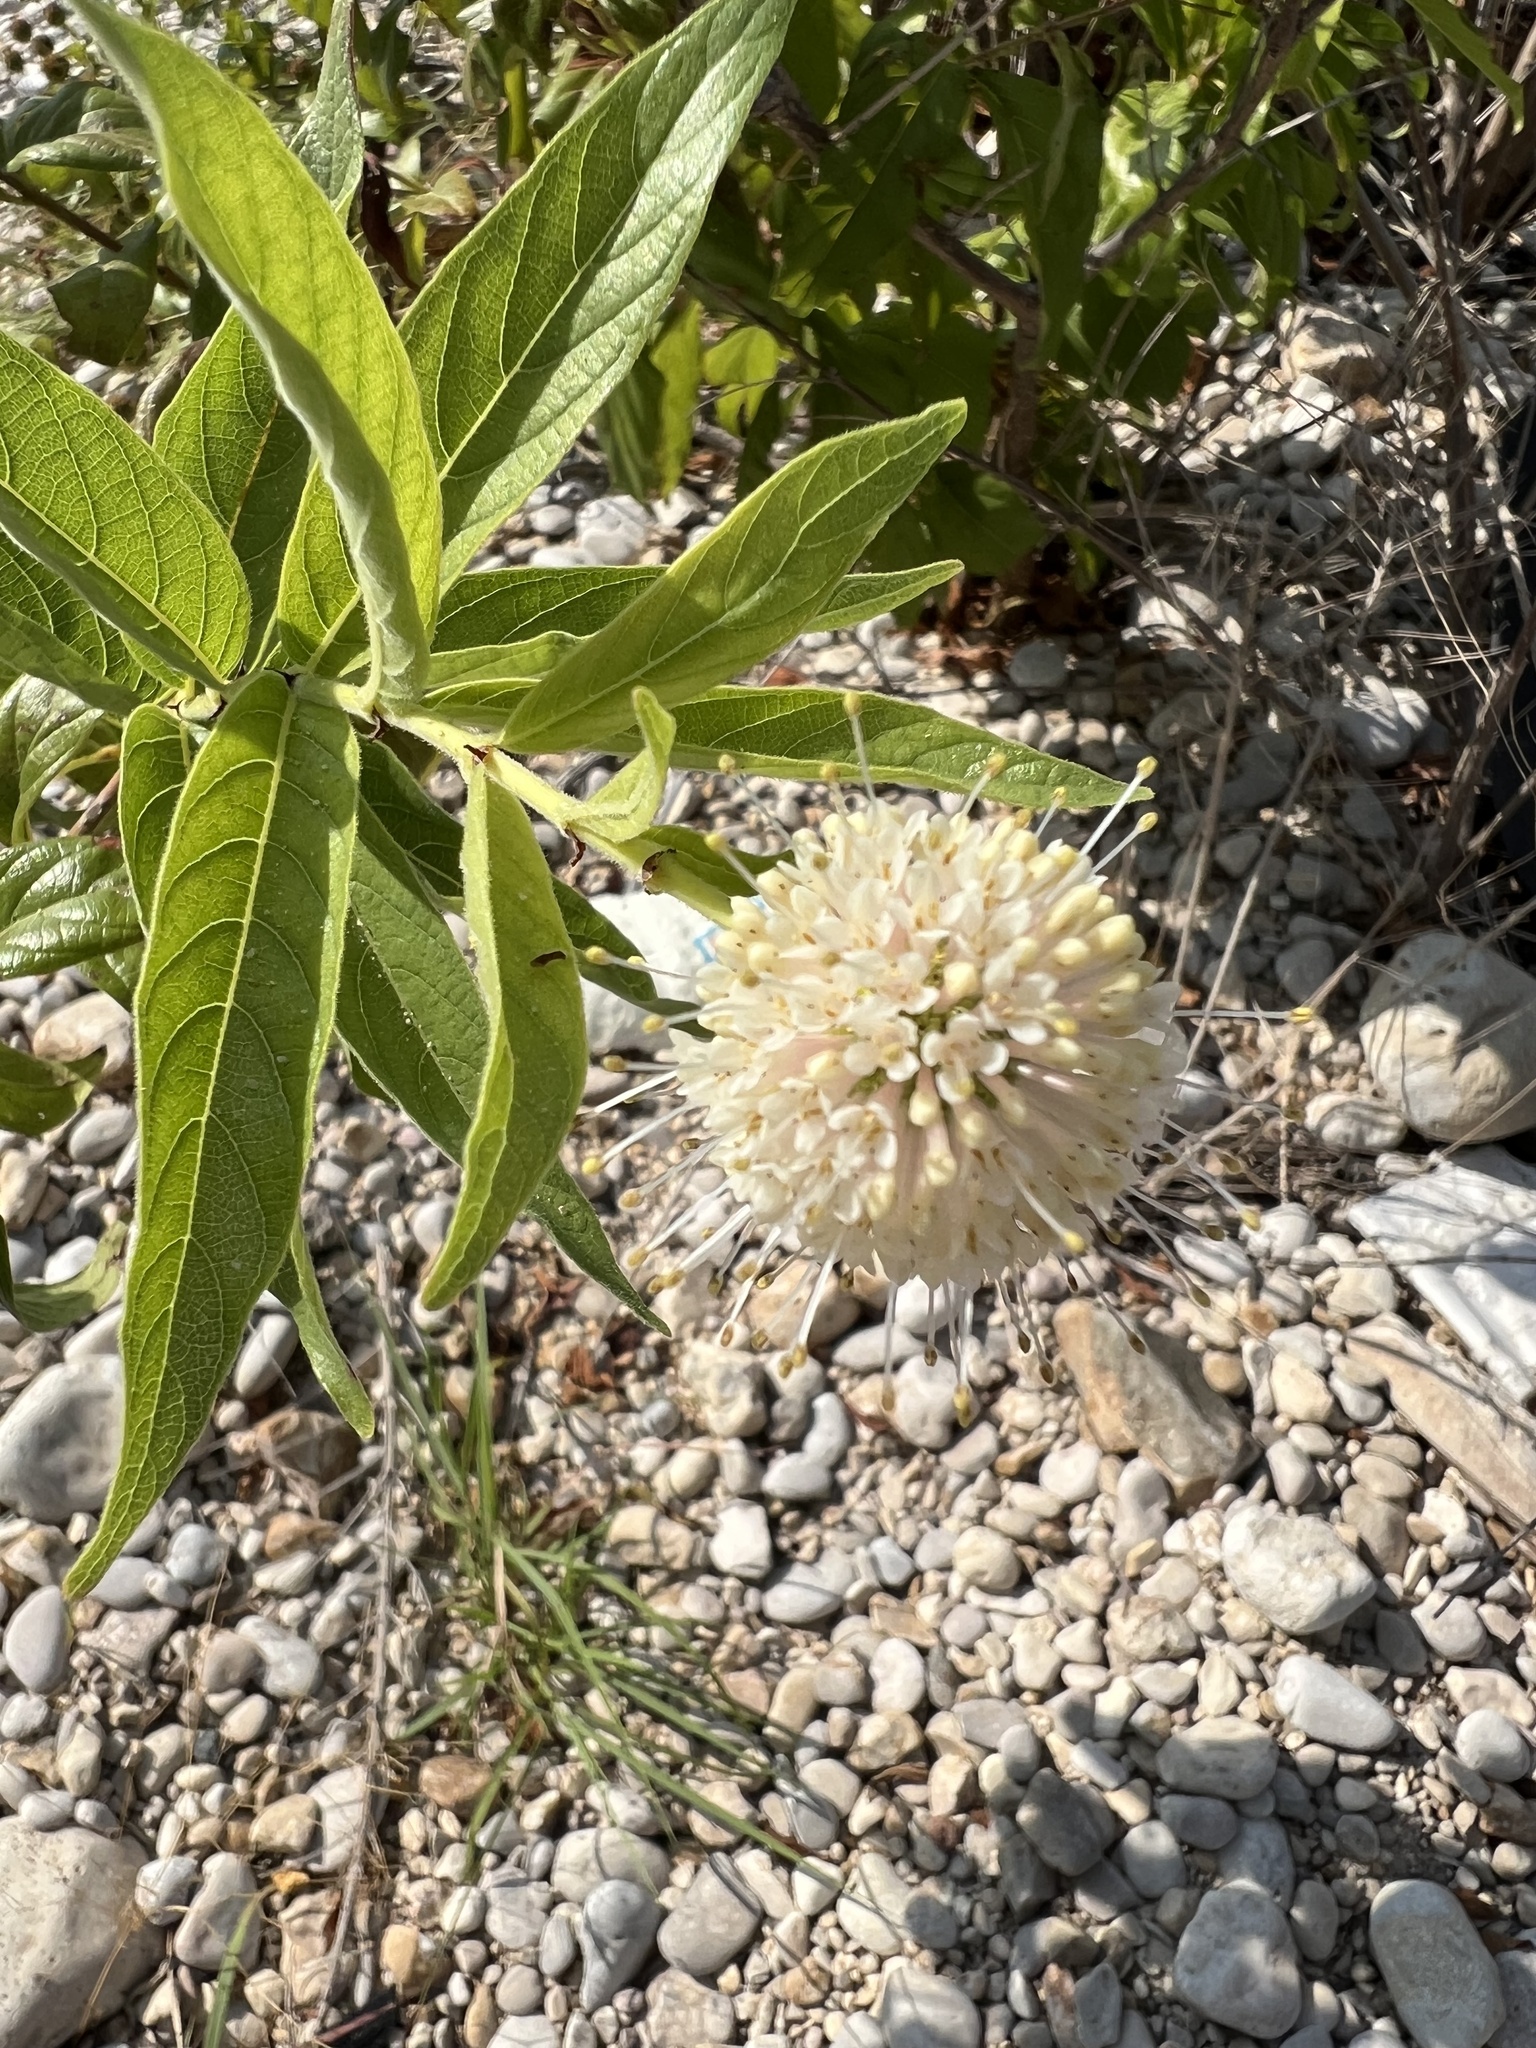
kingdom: Plantae
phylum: Tracheophyta
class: Magnoliopsida
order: Gentianales
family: Rubiaceae
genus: Cephalanthus
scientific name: Cephalanthus occidentalis
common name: Button-willow
